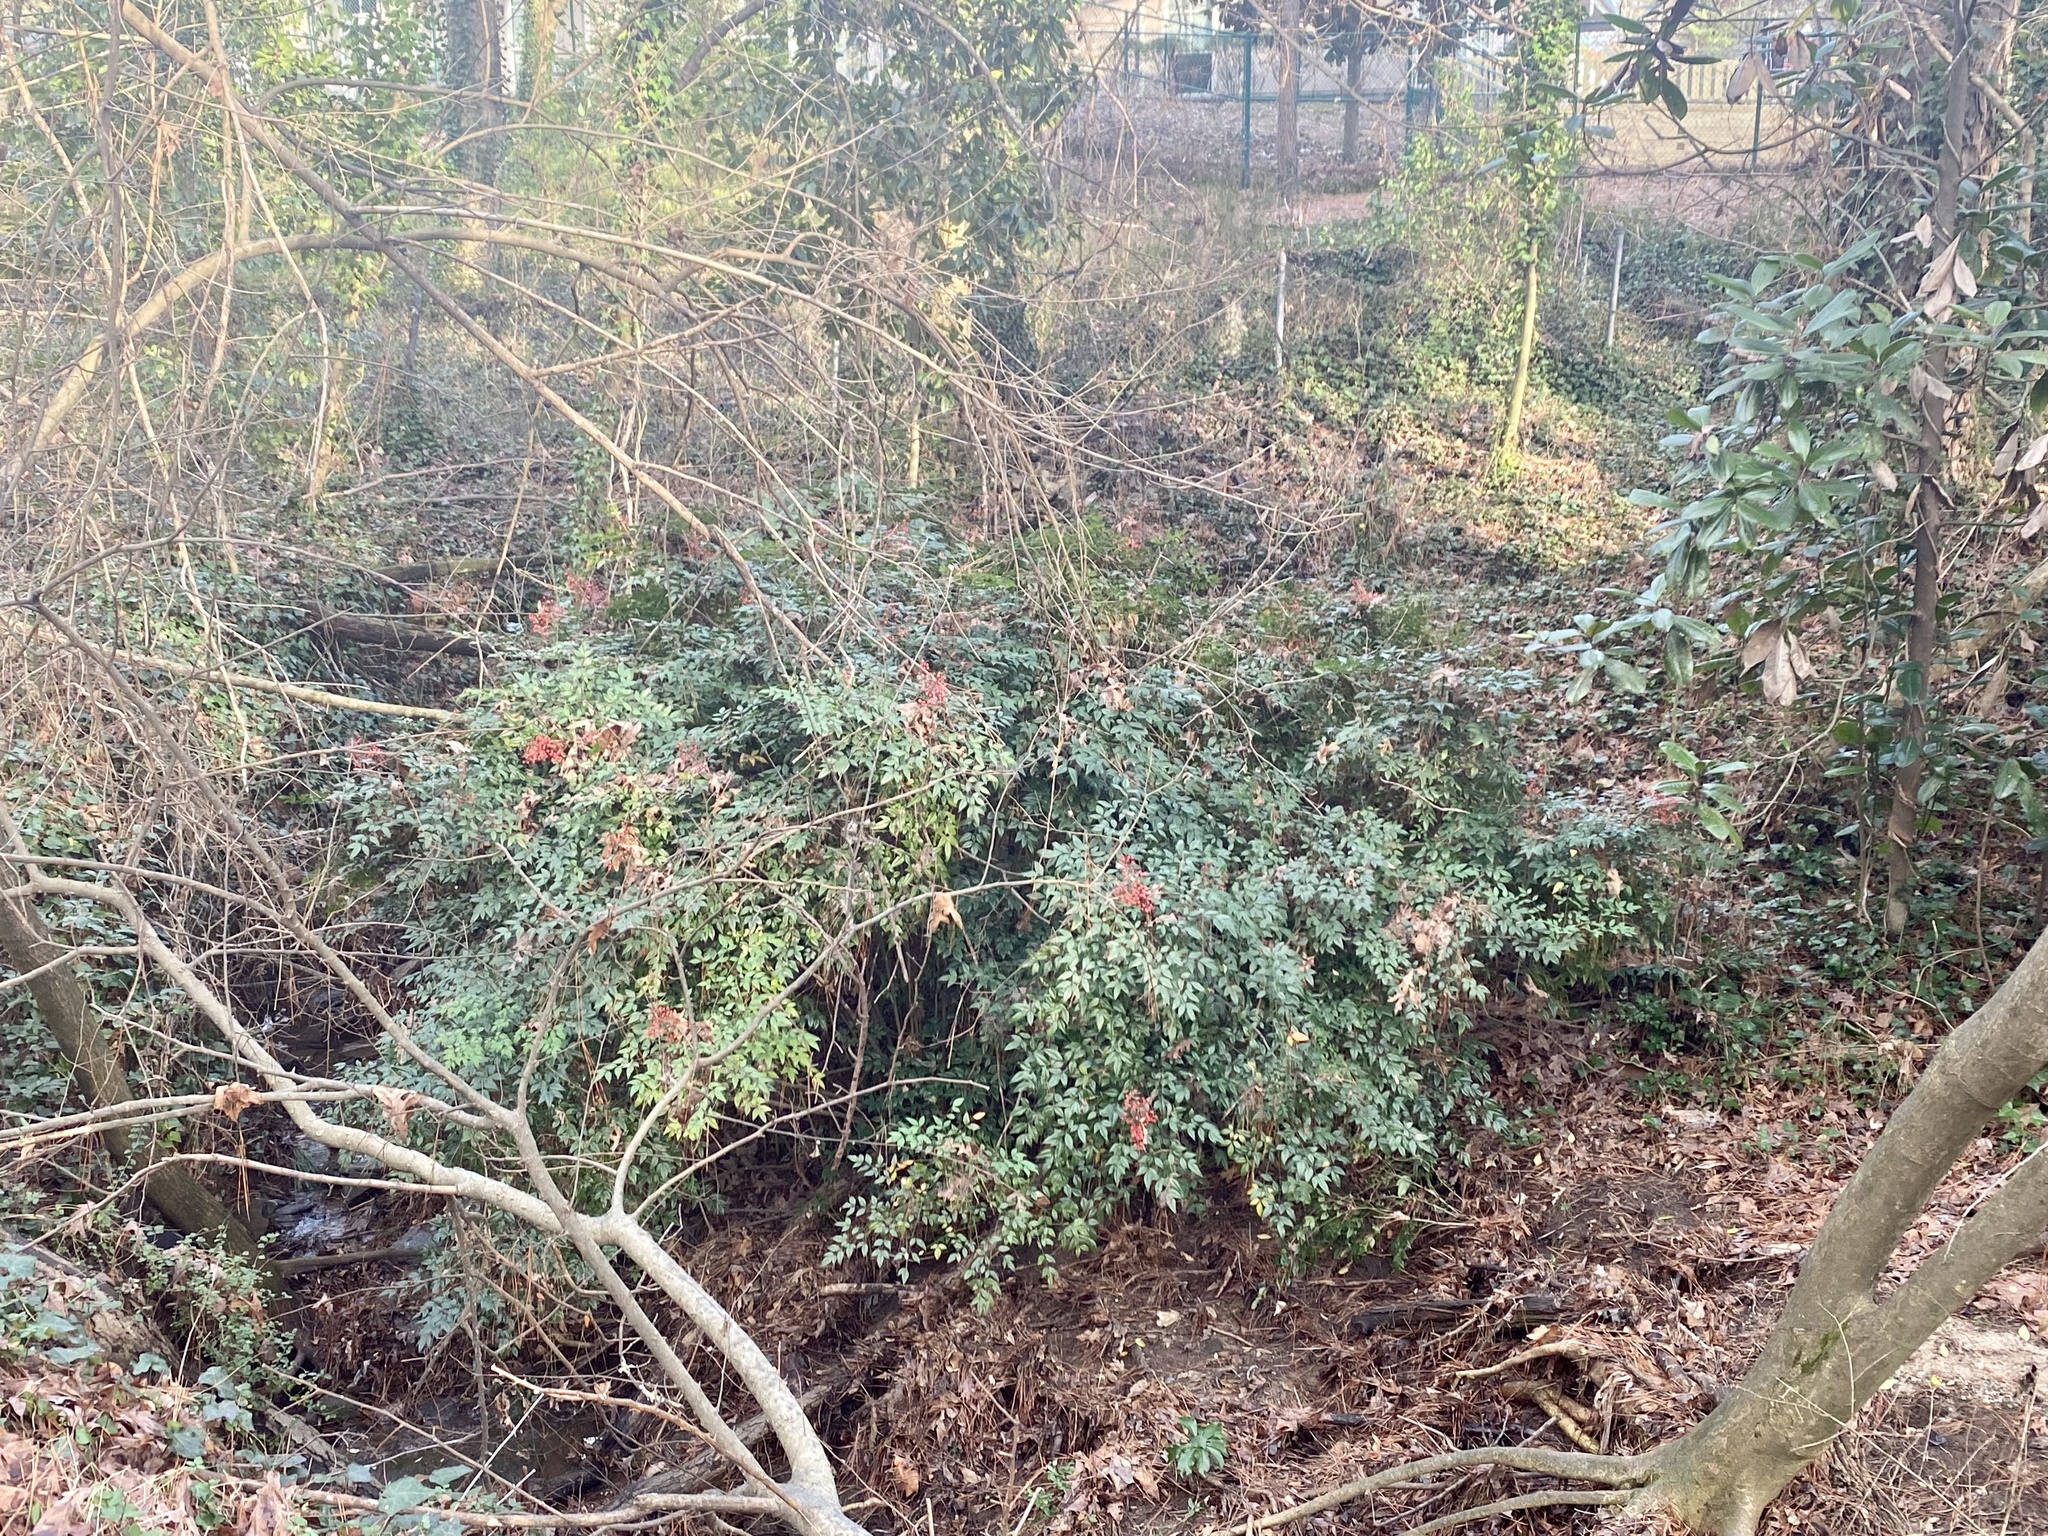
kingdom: Plantae
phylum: Tracheophyta
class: Magnoliopsida
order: Ranunculales
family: Berberidaceae
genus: Nandina
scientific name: Nandina domestica
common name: Sacred bamboo
